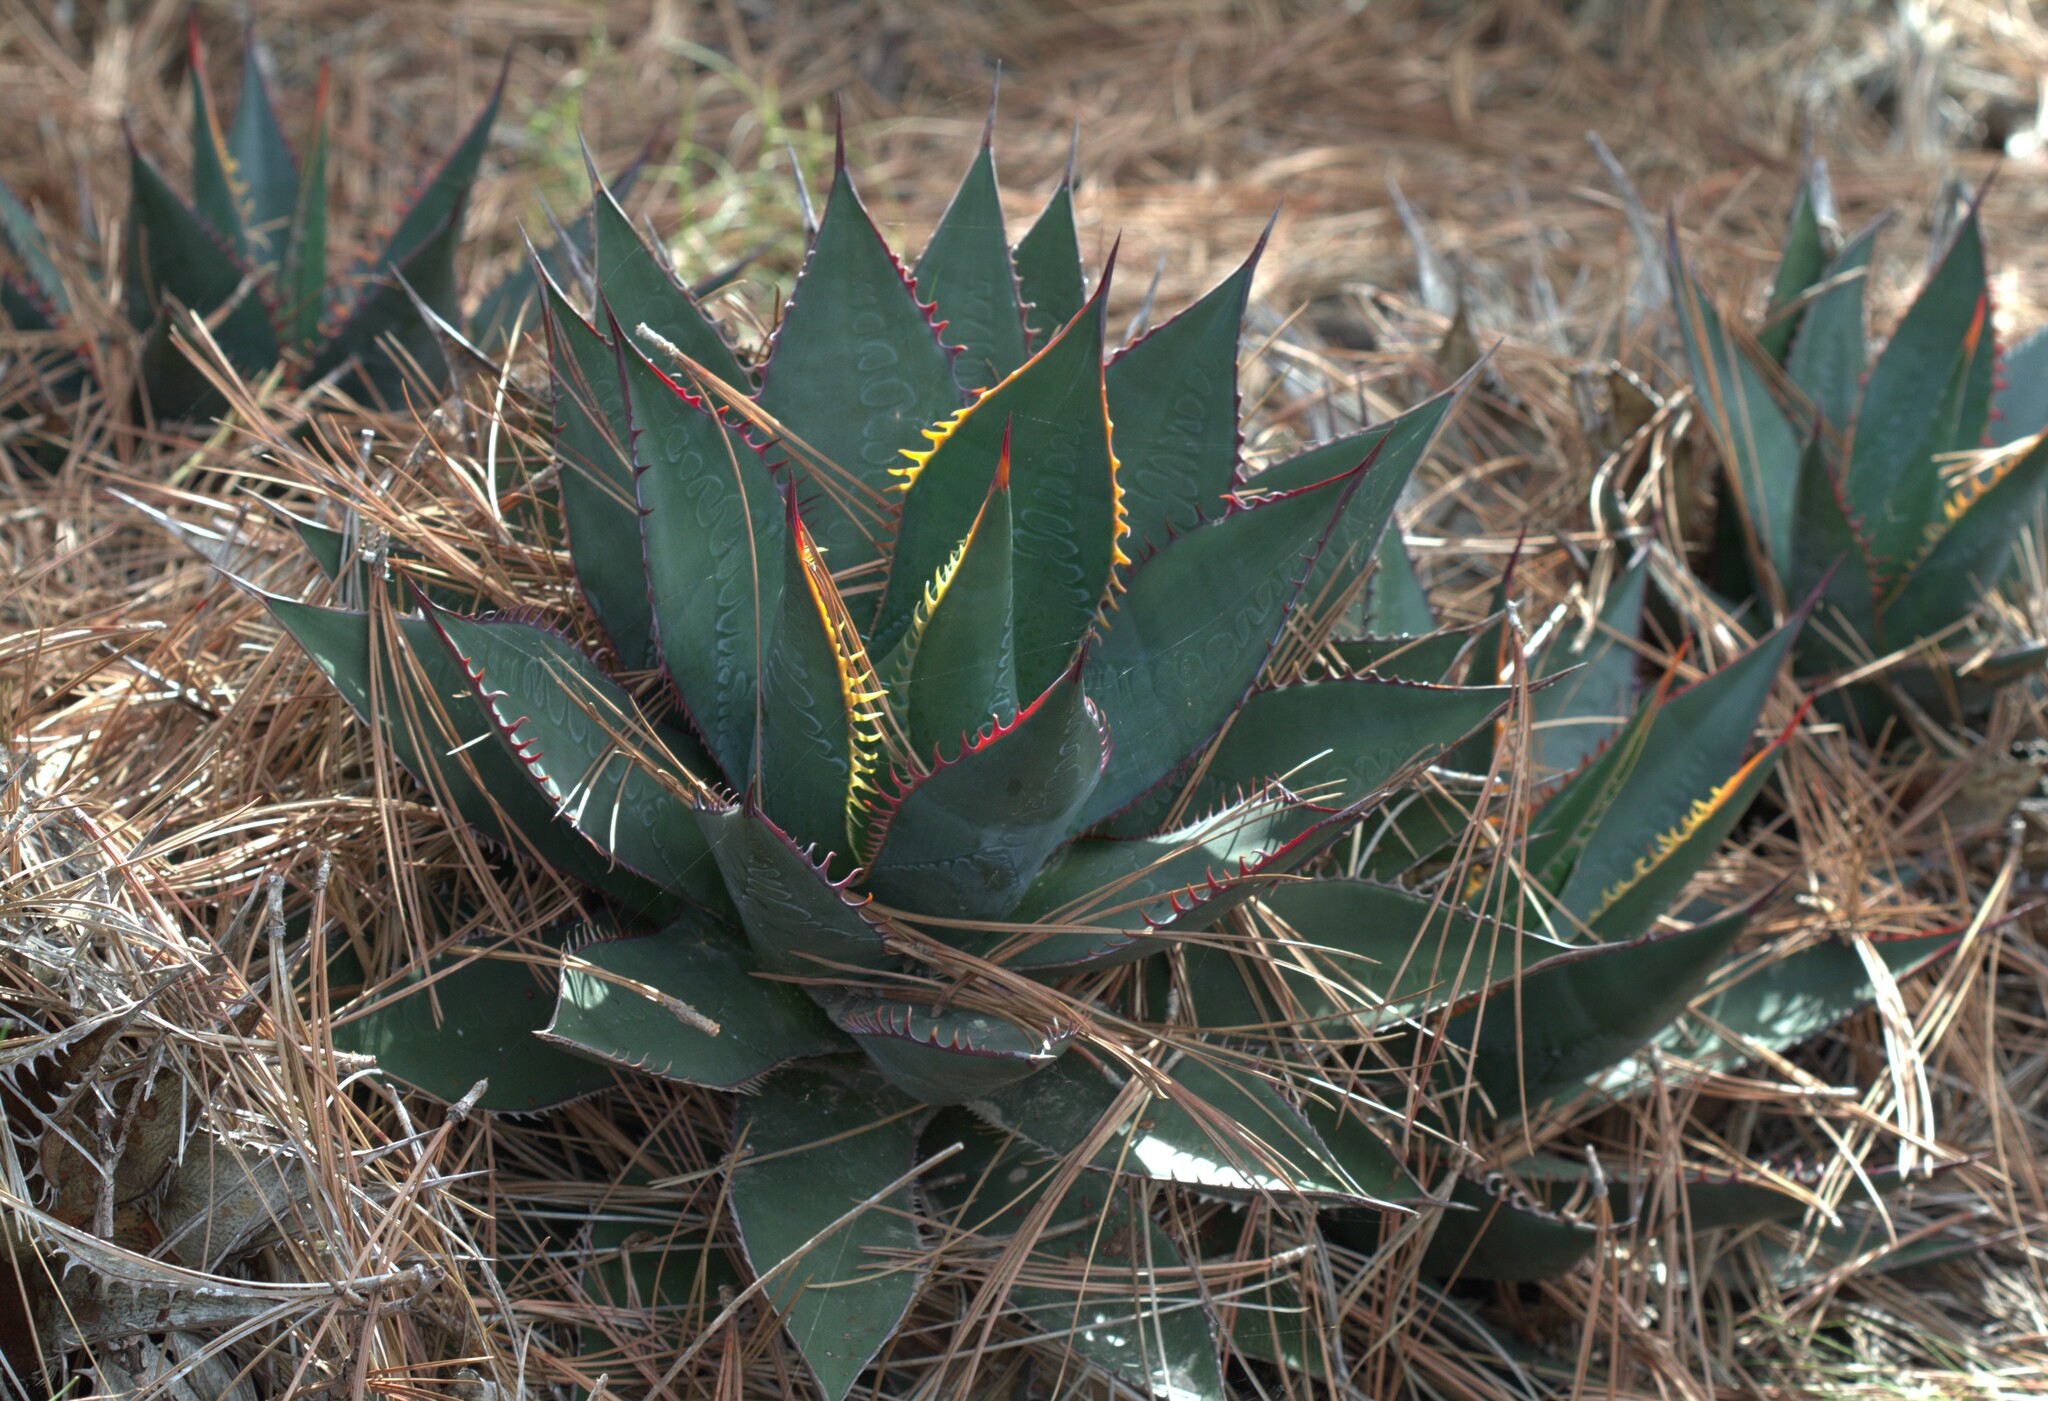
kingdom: Plantae
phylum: Tracheophyta
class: Liliopsida
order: Asparagales
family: Asparagaceae
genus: Agave
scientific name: Agave shawii
